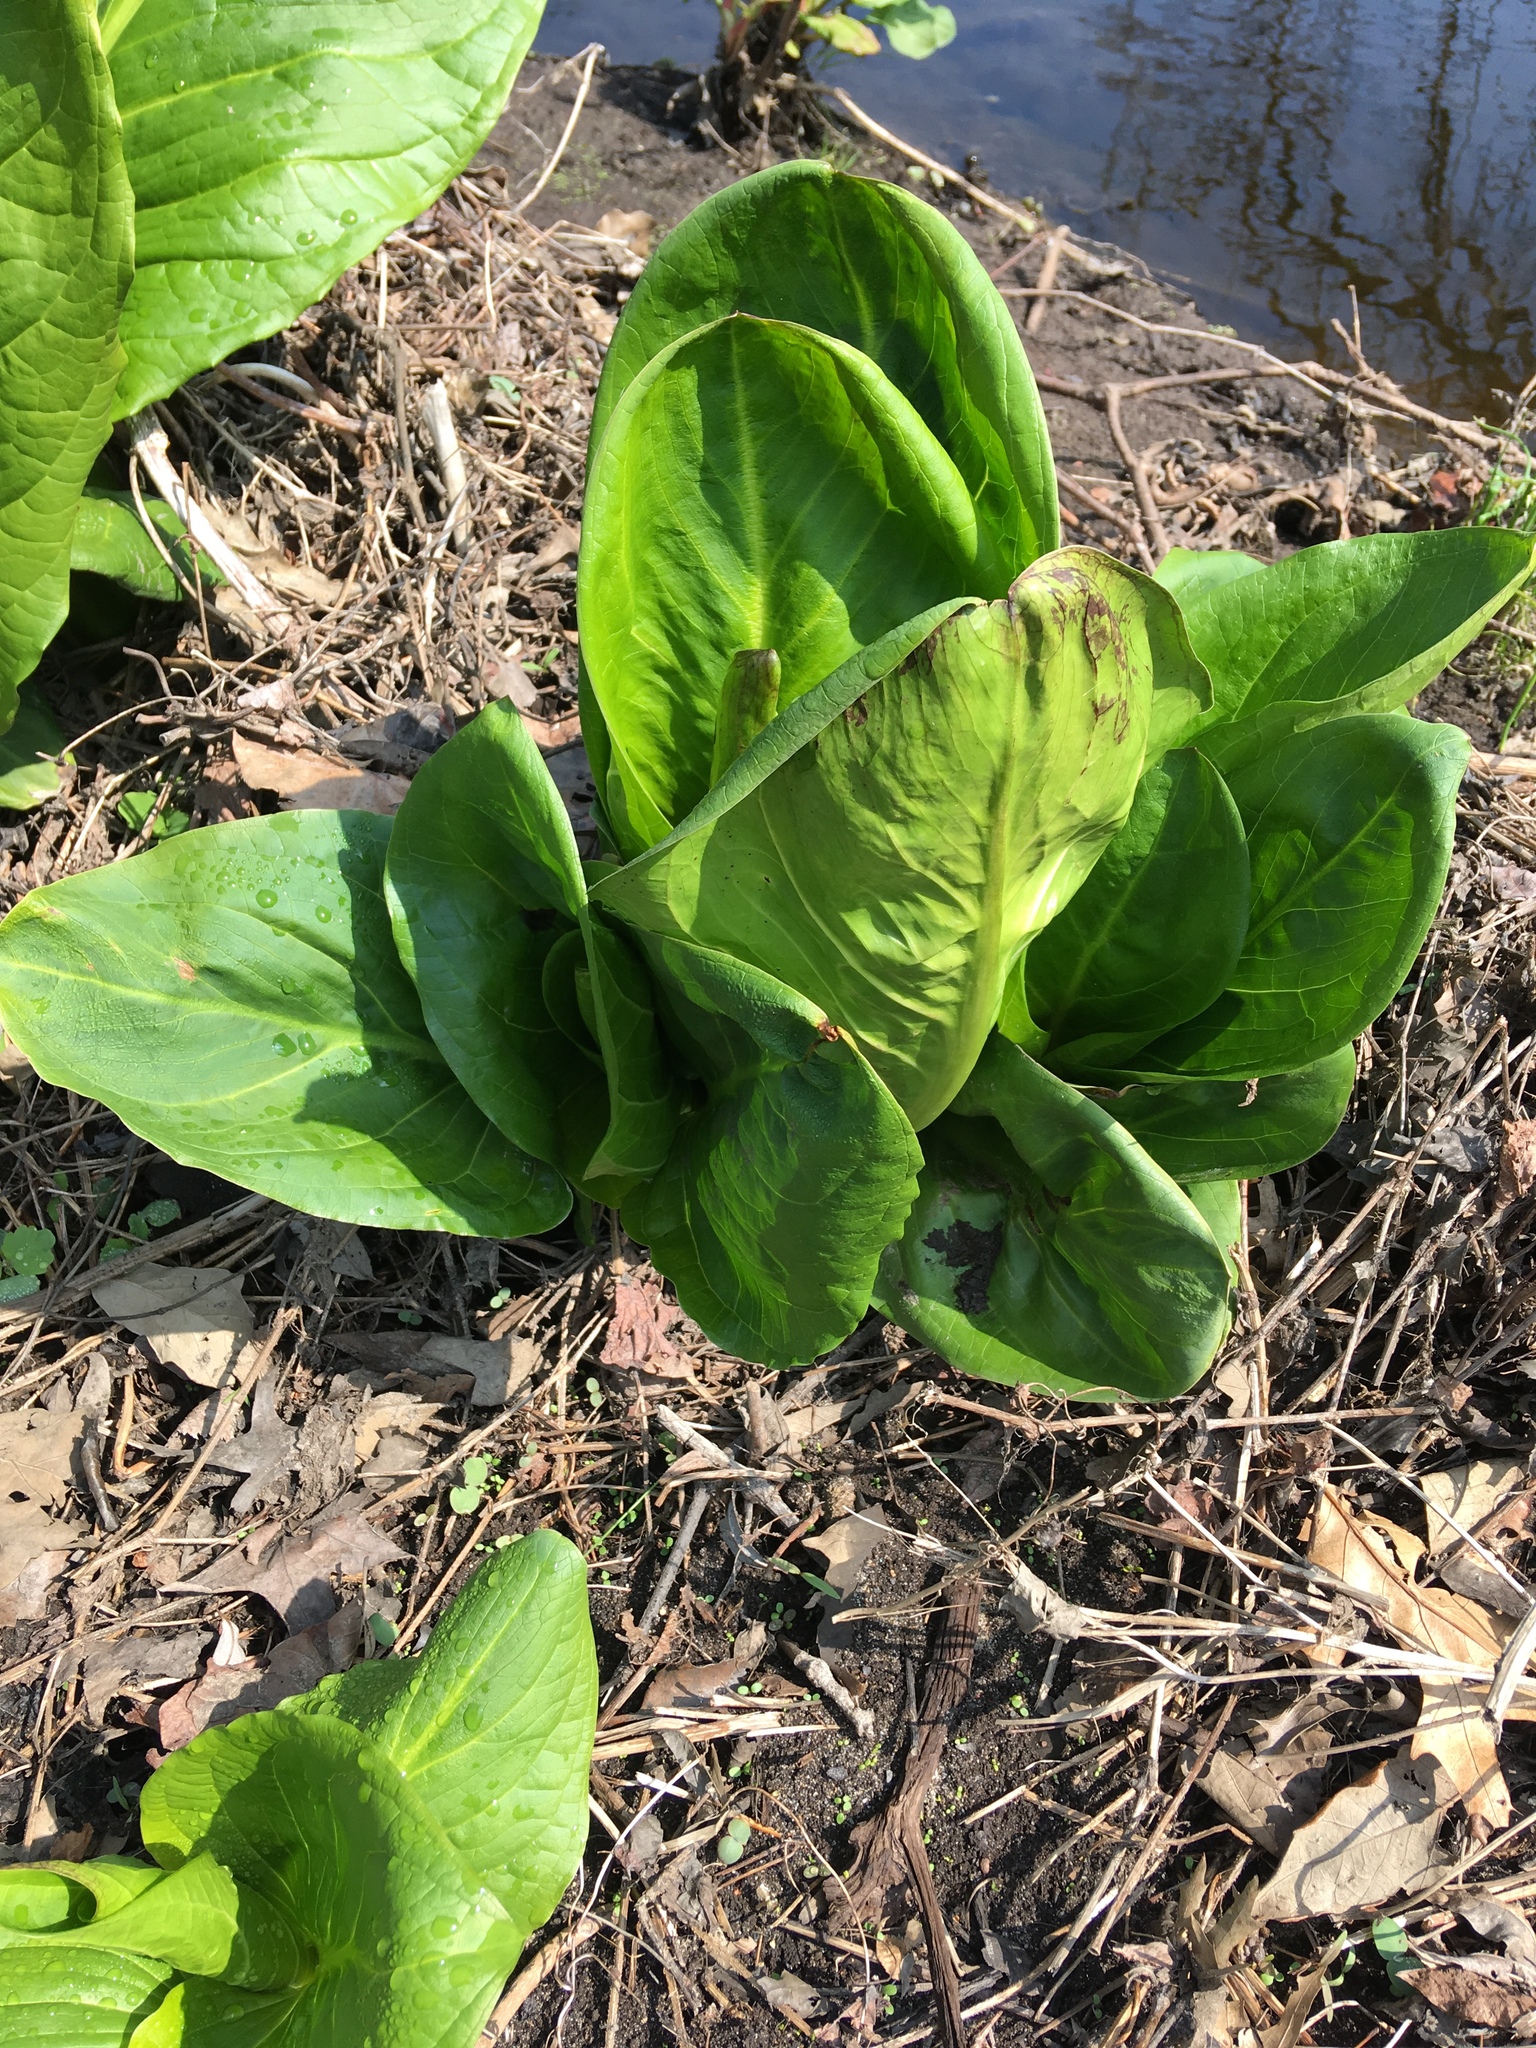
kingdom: Plantae
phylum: Tracheophyta
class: Liliopsida
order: Alismatales
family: Araceae
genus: Symplocarpus
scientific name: Symplocarpus foetidus
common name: Eastern skunk cabbage
